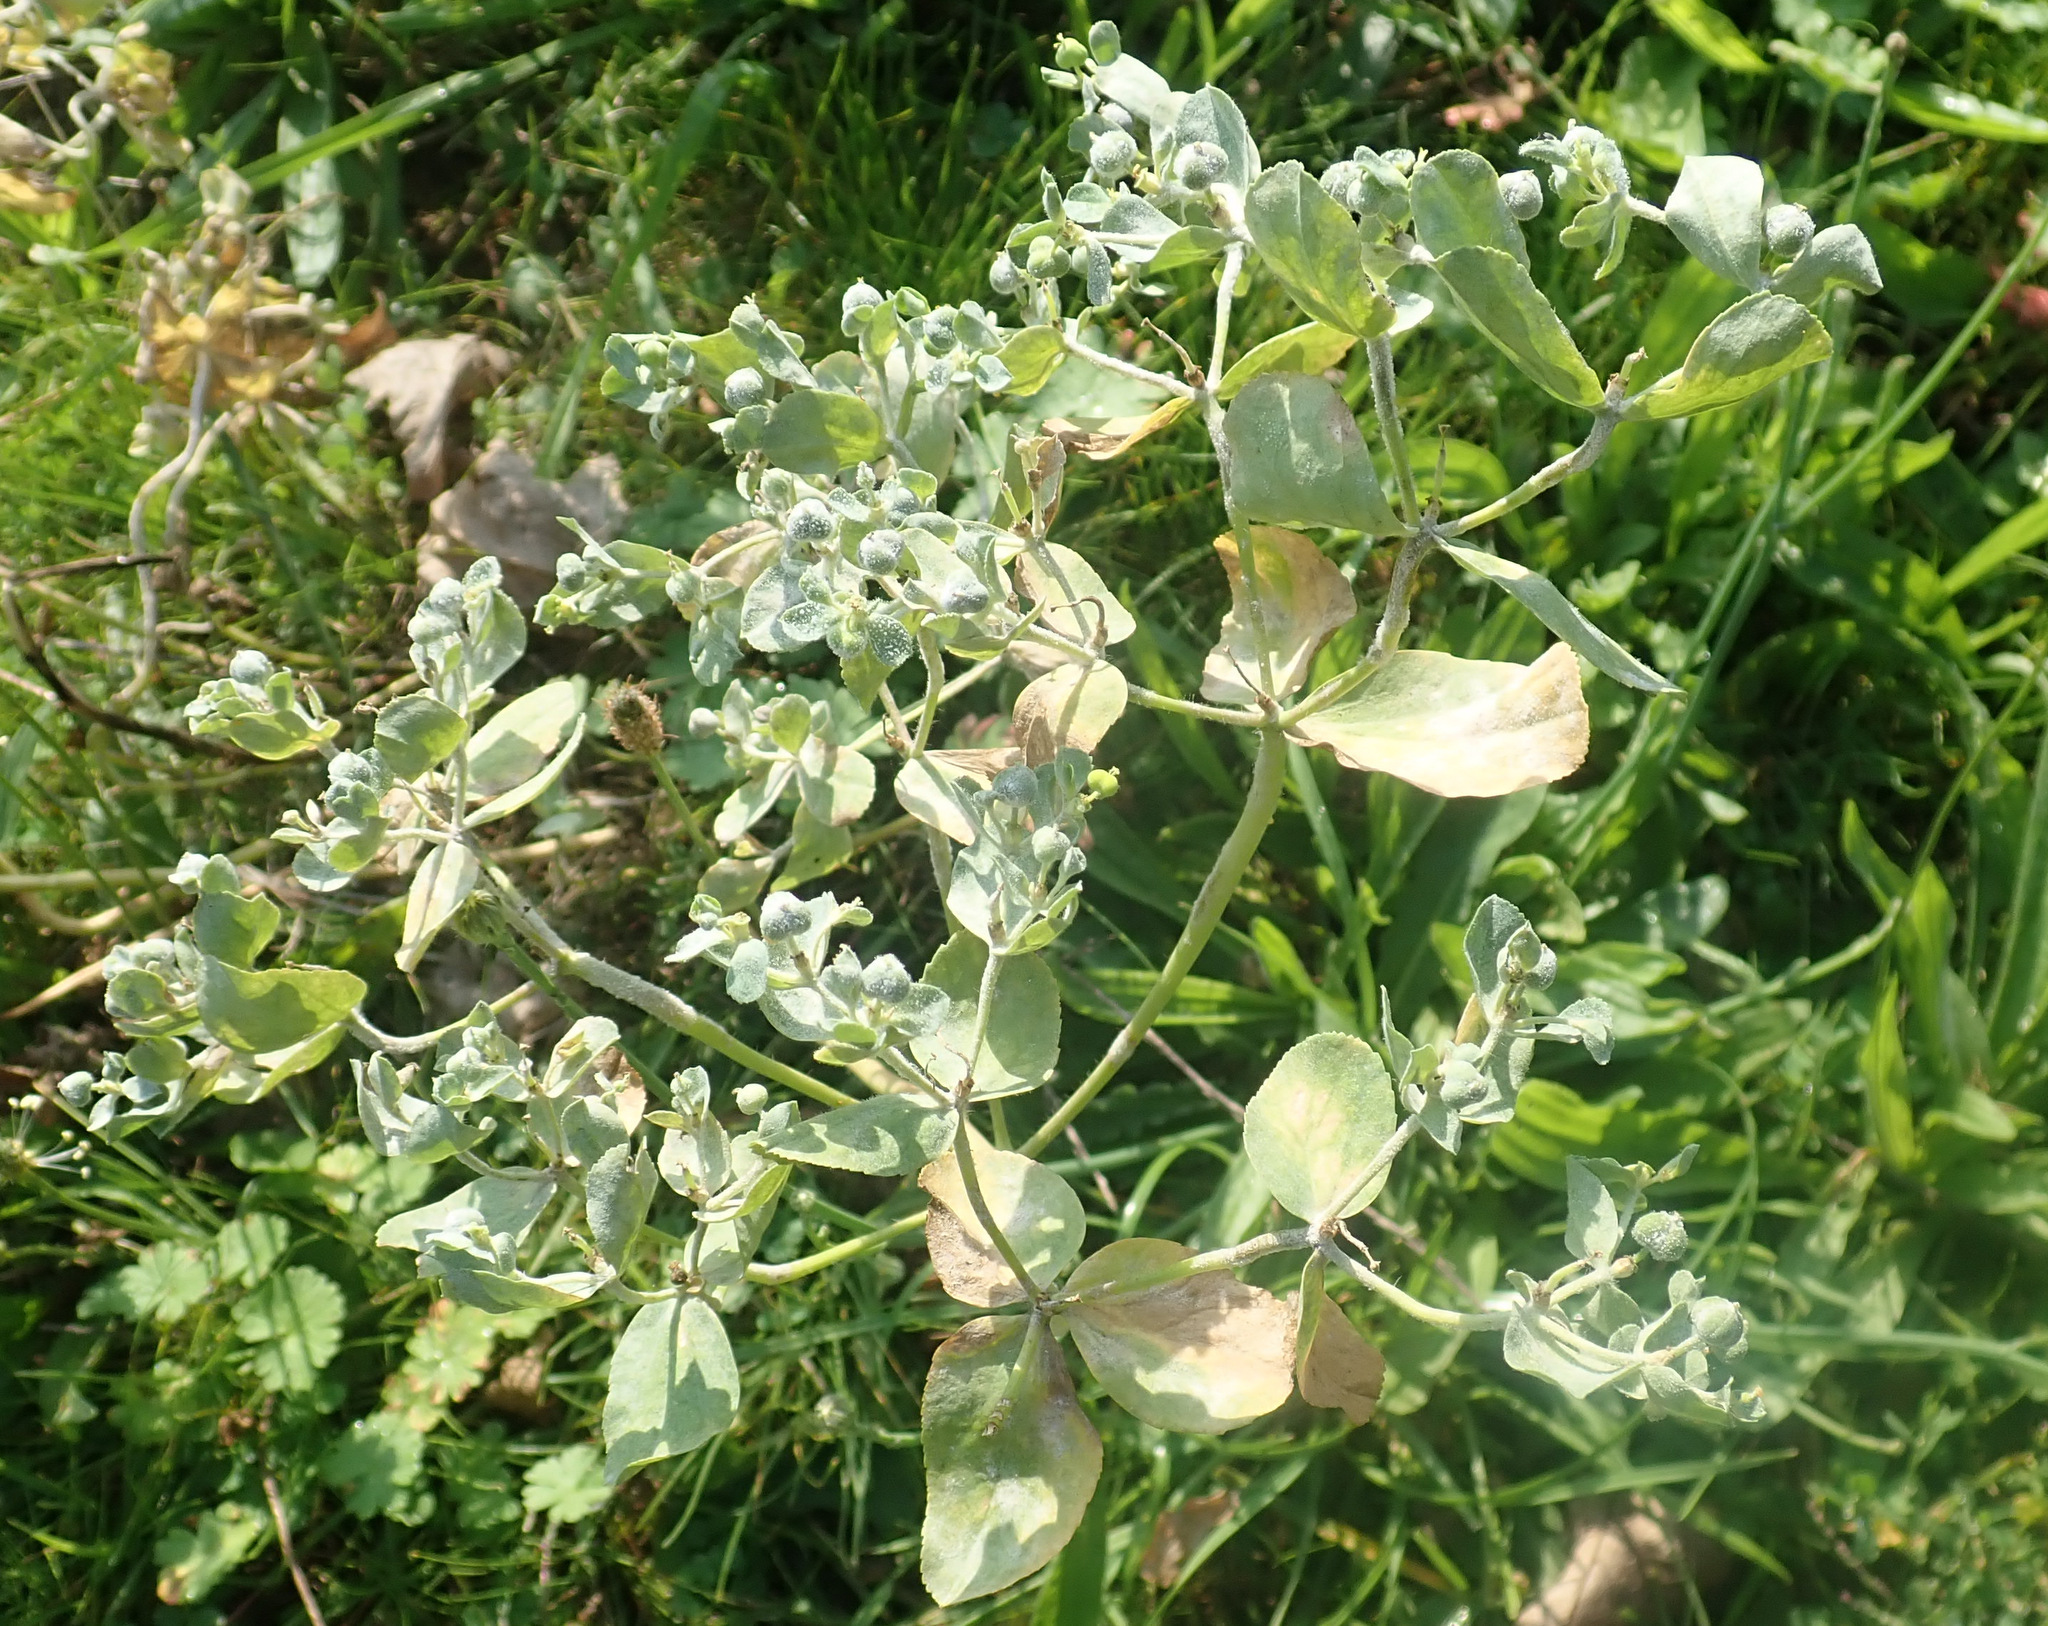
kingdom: Plantae
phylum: Tracheophyta
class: Magnoliopsida
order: Malpighiales
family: Euphorbiaceae
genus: Euphorbia
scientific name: Euphorbia helioscopia
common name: Sun spurge
